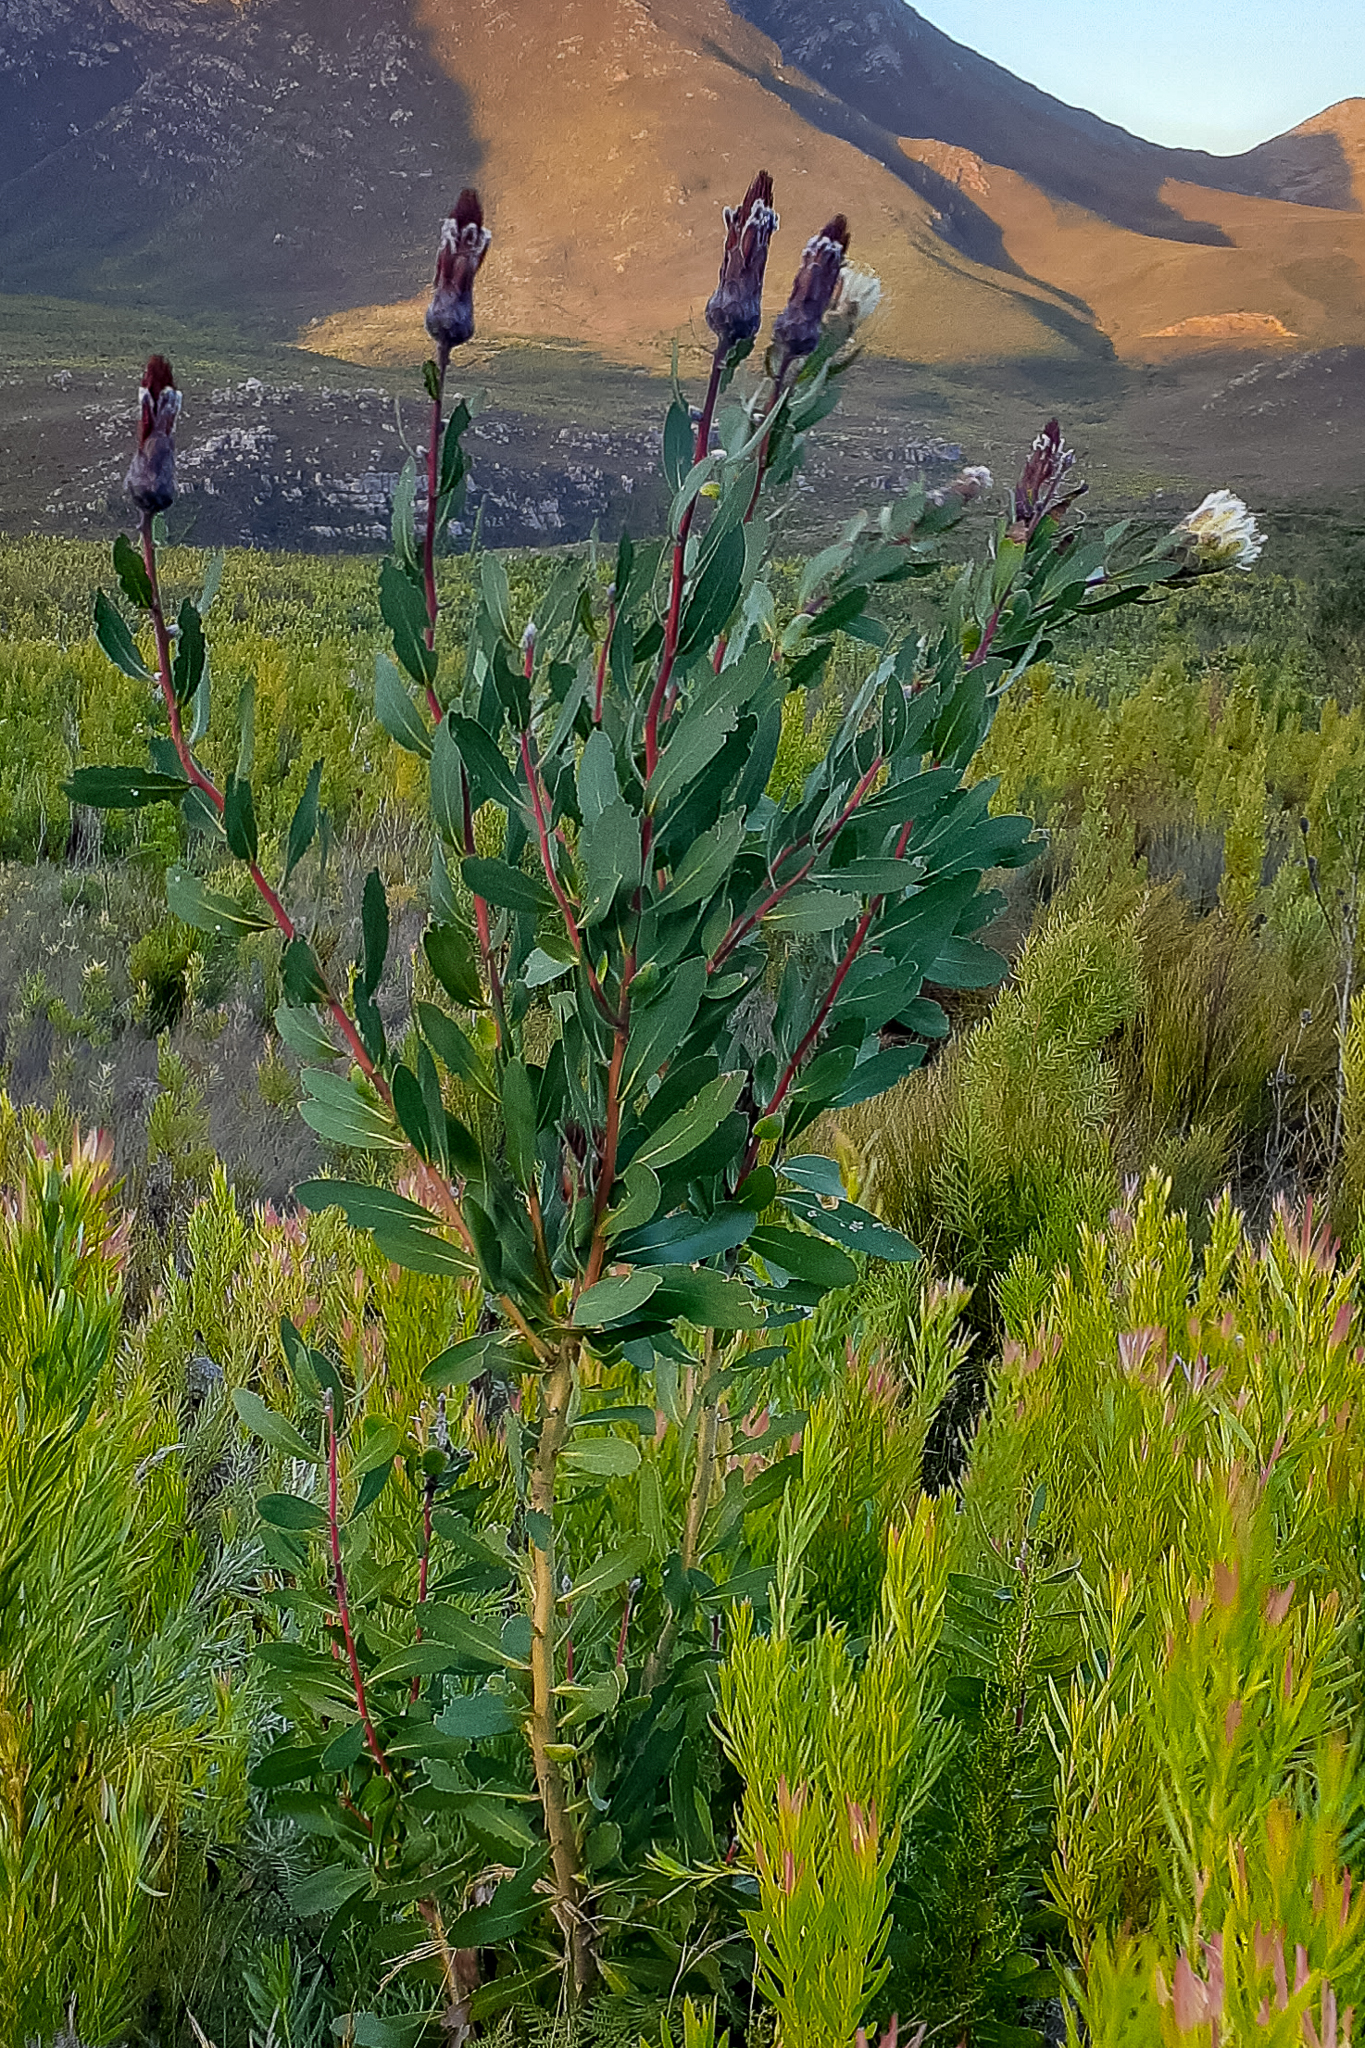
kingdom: Plantae
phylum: Tracheophyta
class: Magnoliopsida
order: Proteales
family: Proteaceae
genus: Protea
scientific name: Protea mundii
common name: Forest sugarbush
